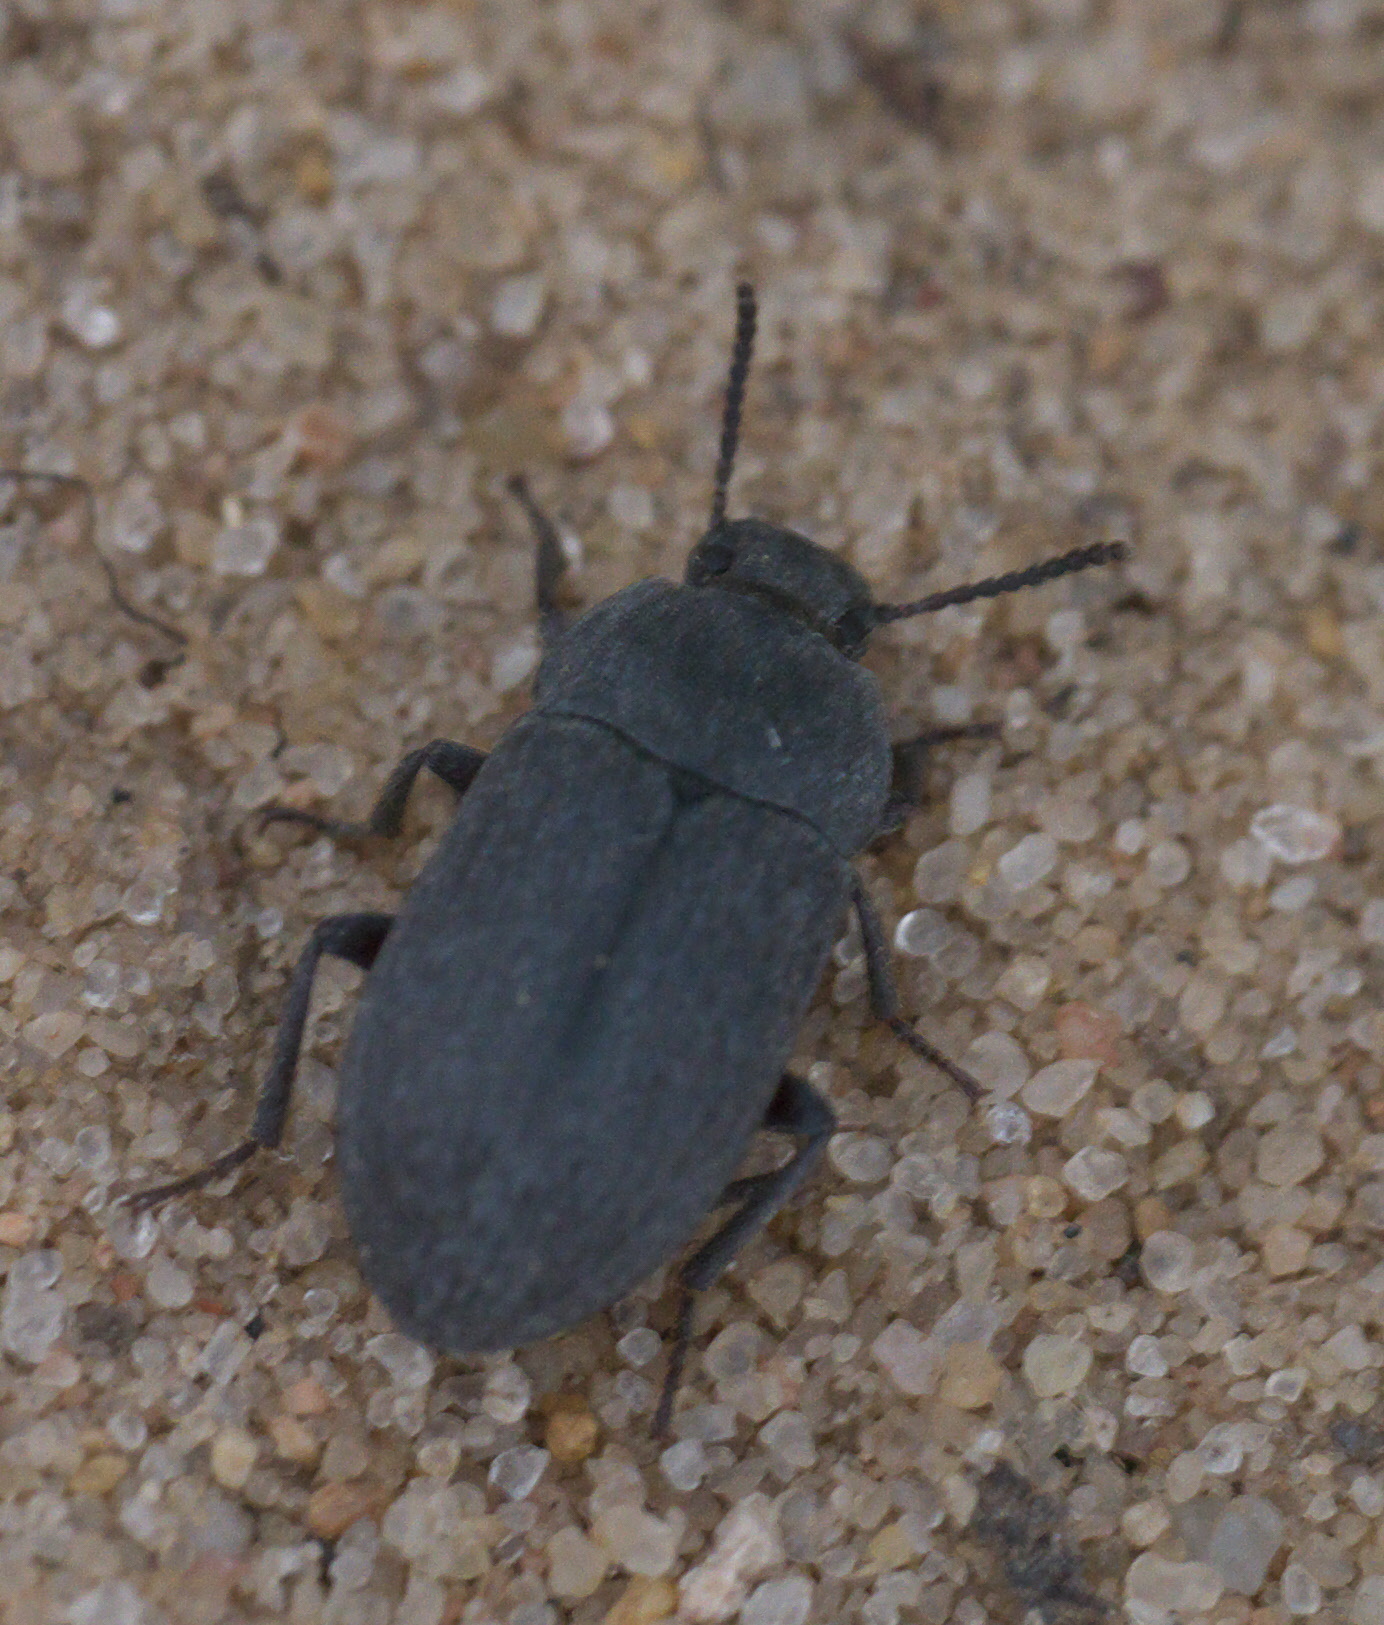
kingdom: Animalia
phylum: Arthropoda
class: Insecta
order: Coleoptera
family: Tenebrionidae
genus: Blapstinus
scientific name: Blapstinus fortis
